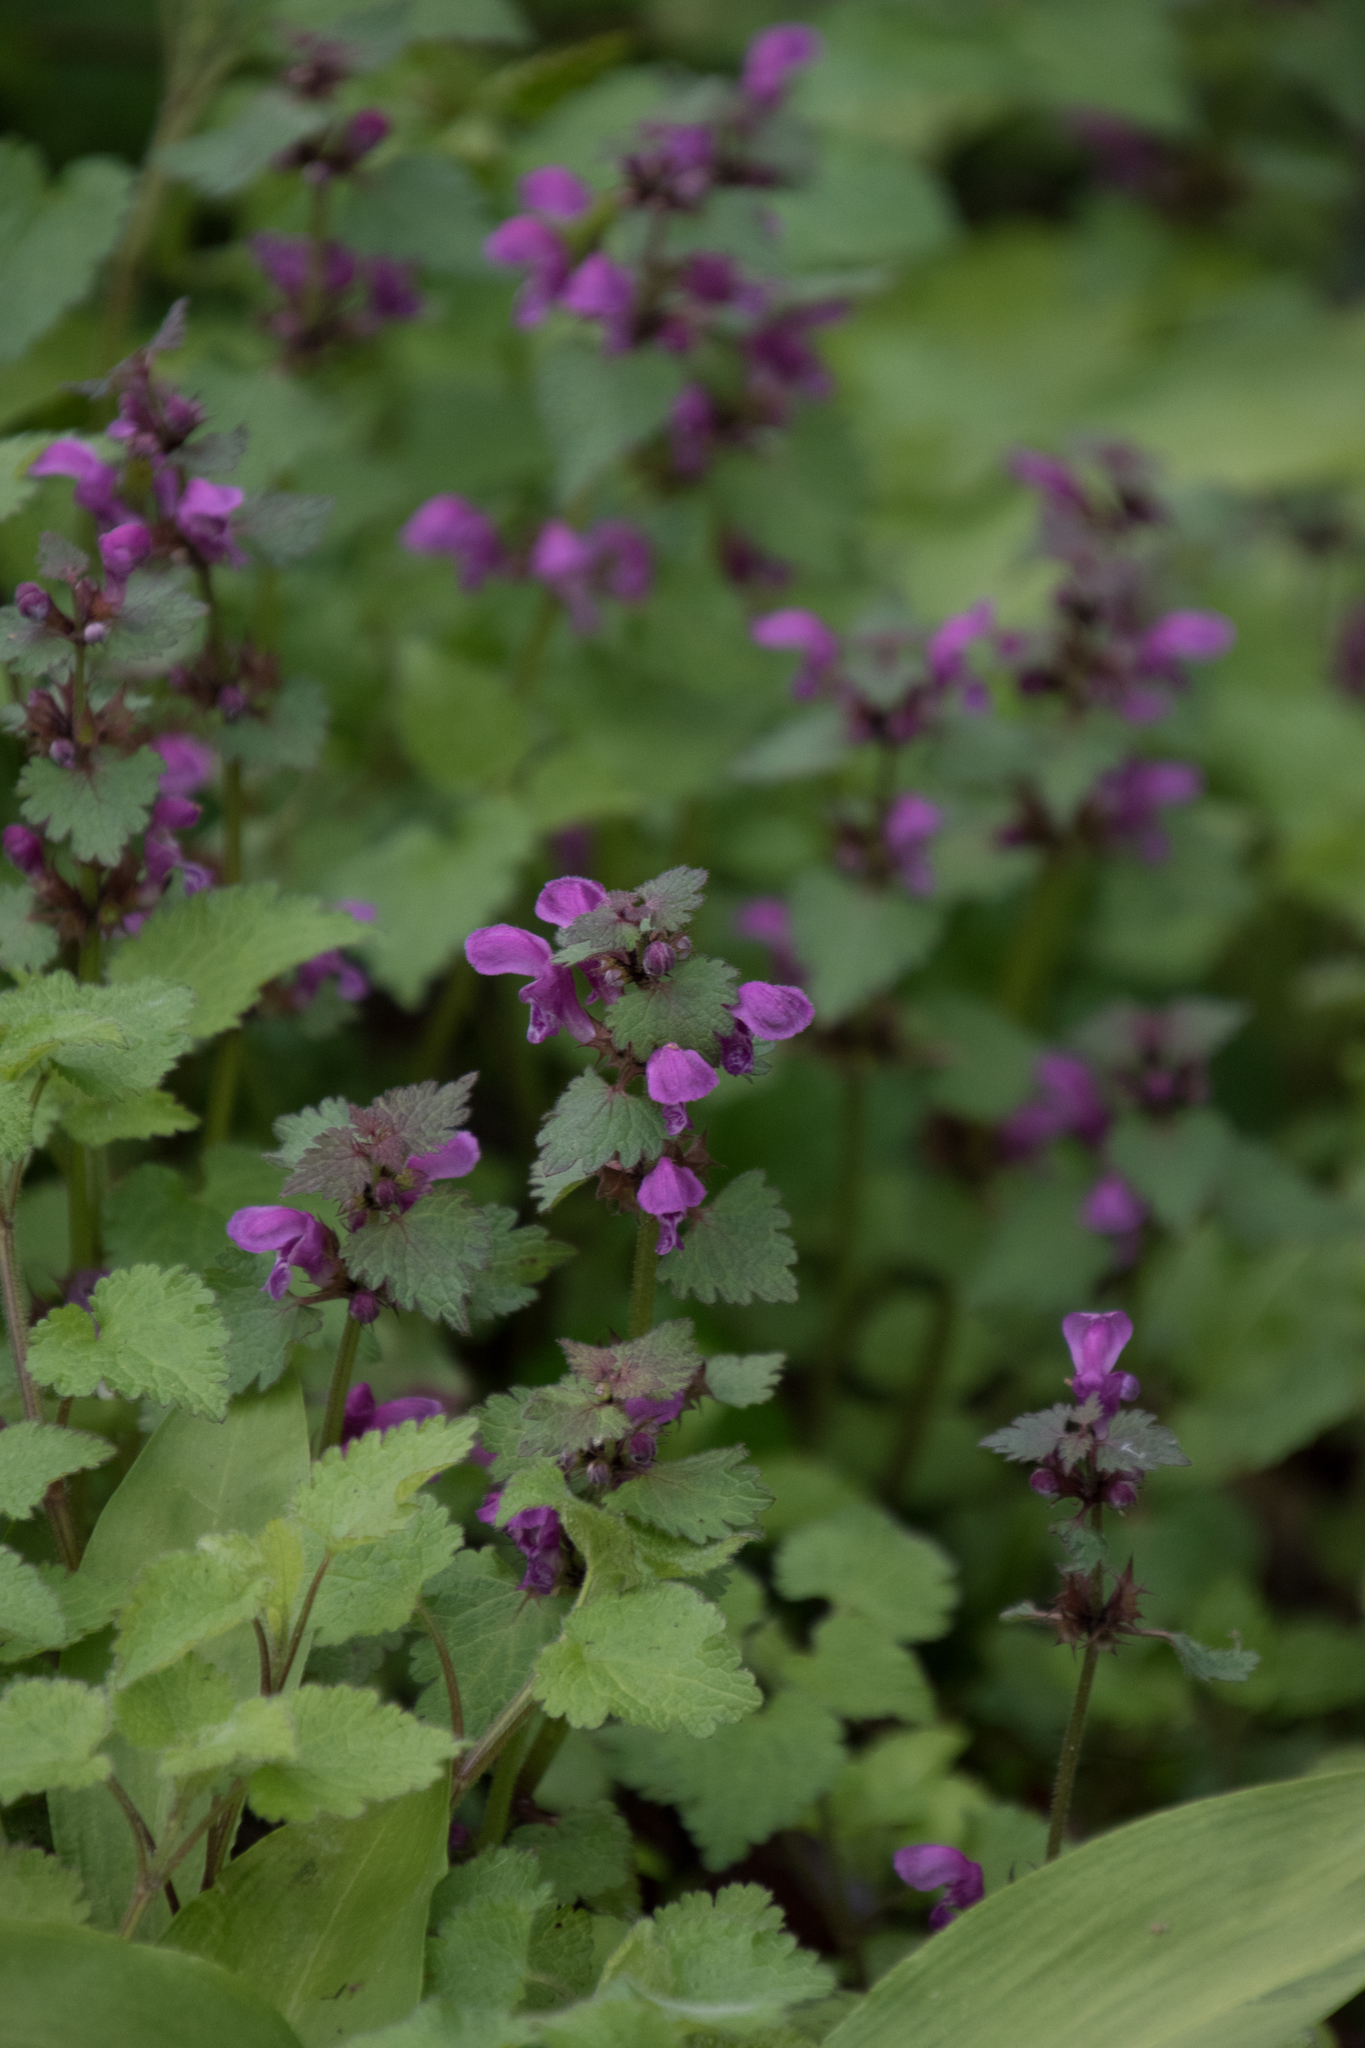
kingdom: Plantae
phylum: Tracheophyta
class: Magnoliopsida
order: Lamiales
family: Lamiaceae
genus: Lamium
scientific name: Lamium maculatum
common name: Spotted dead-nettle
